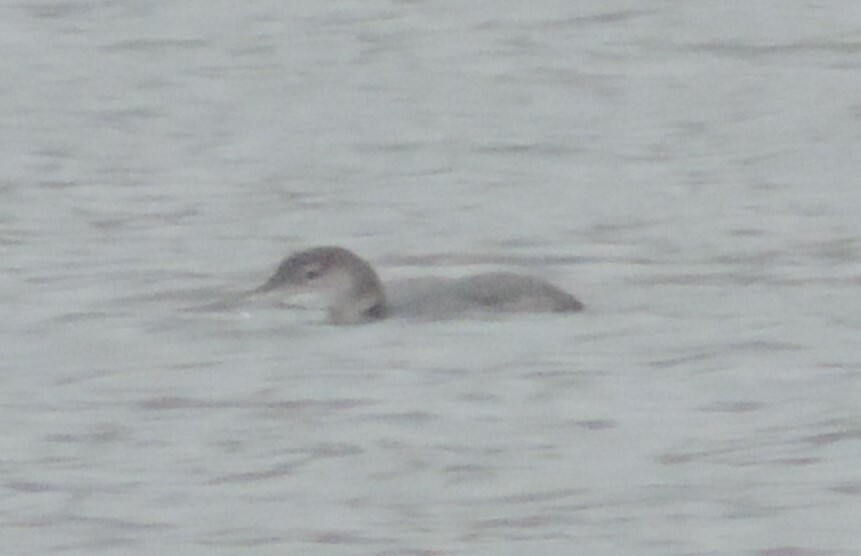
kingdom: Animalia
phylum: Chordata
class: Aves
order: Gaviiformes
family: Gaviidae
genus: Gavia
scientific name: Gavia immer
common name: Common loon
